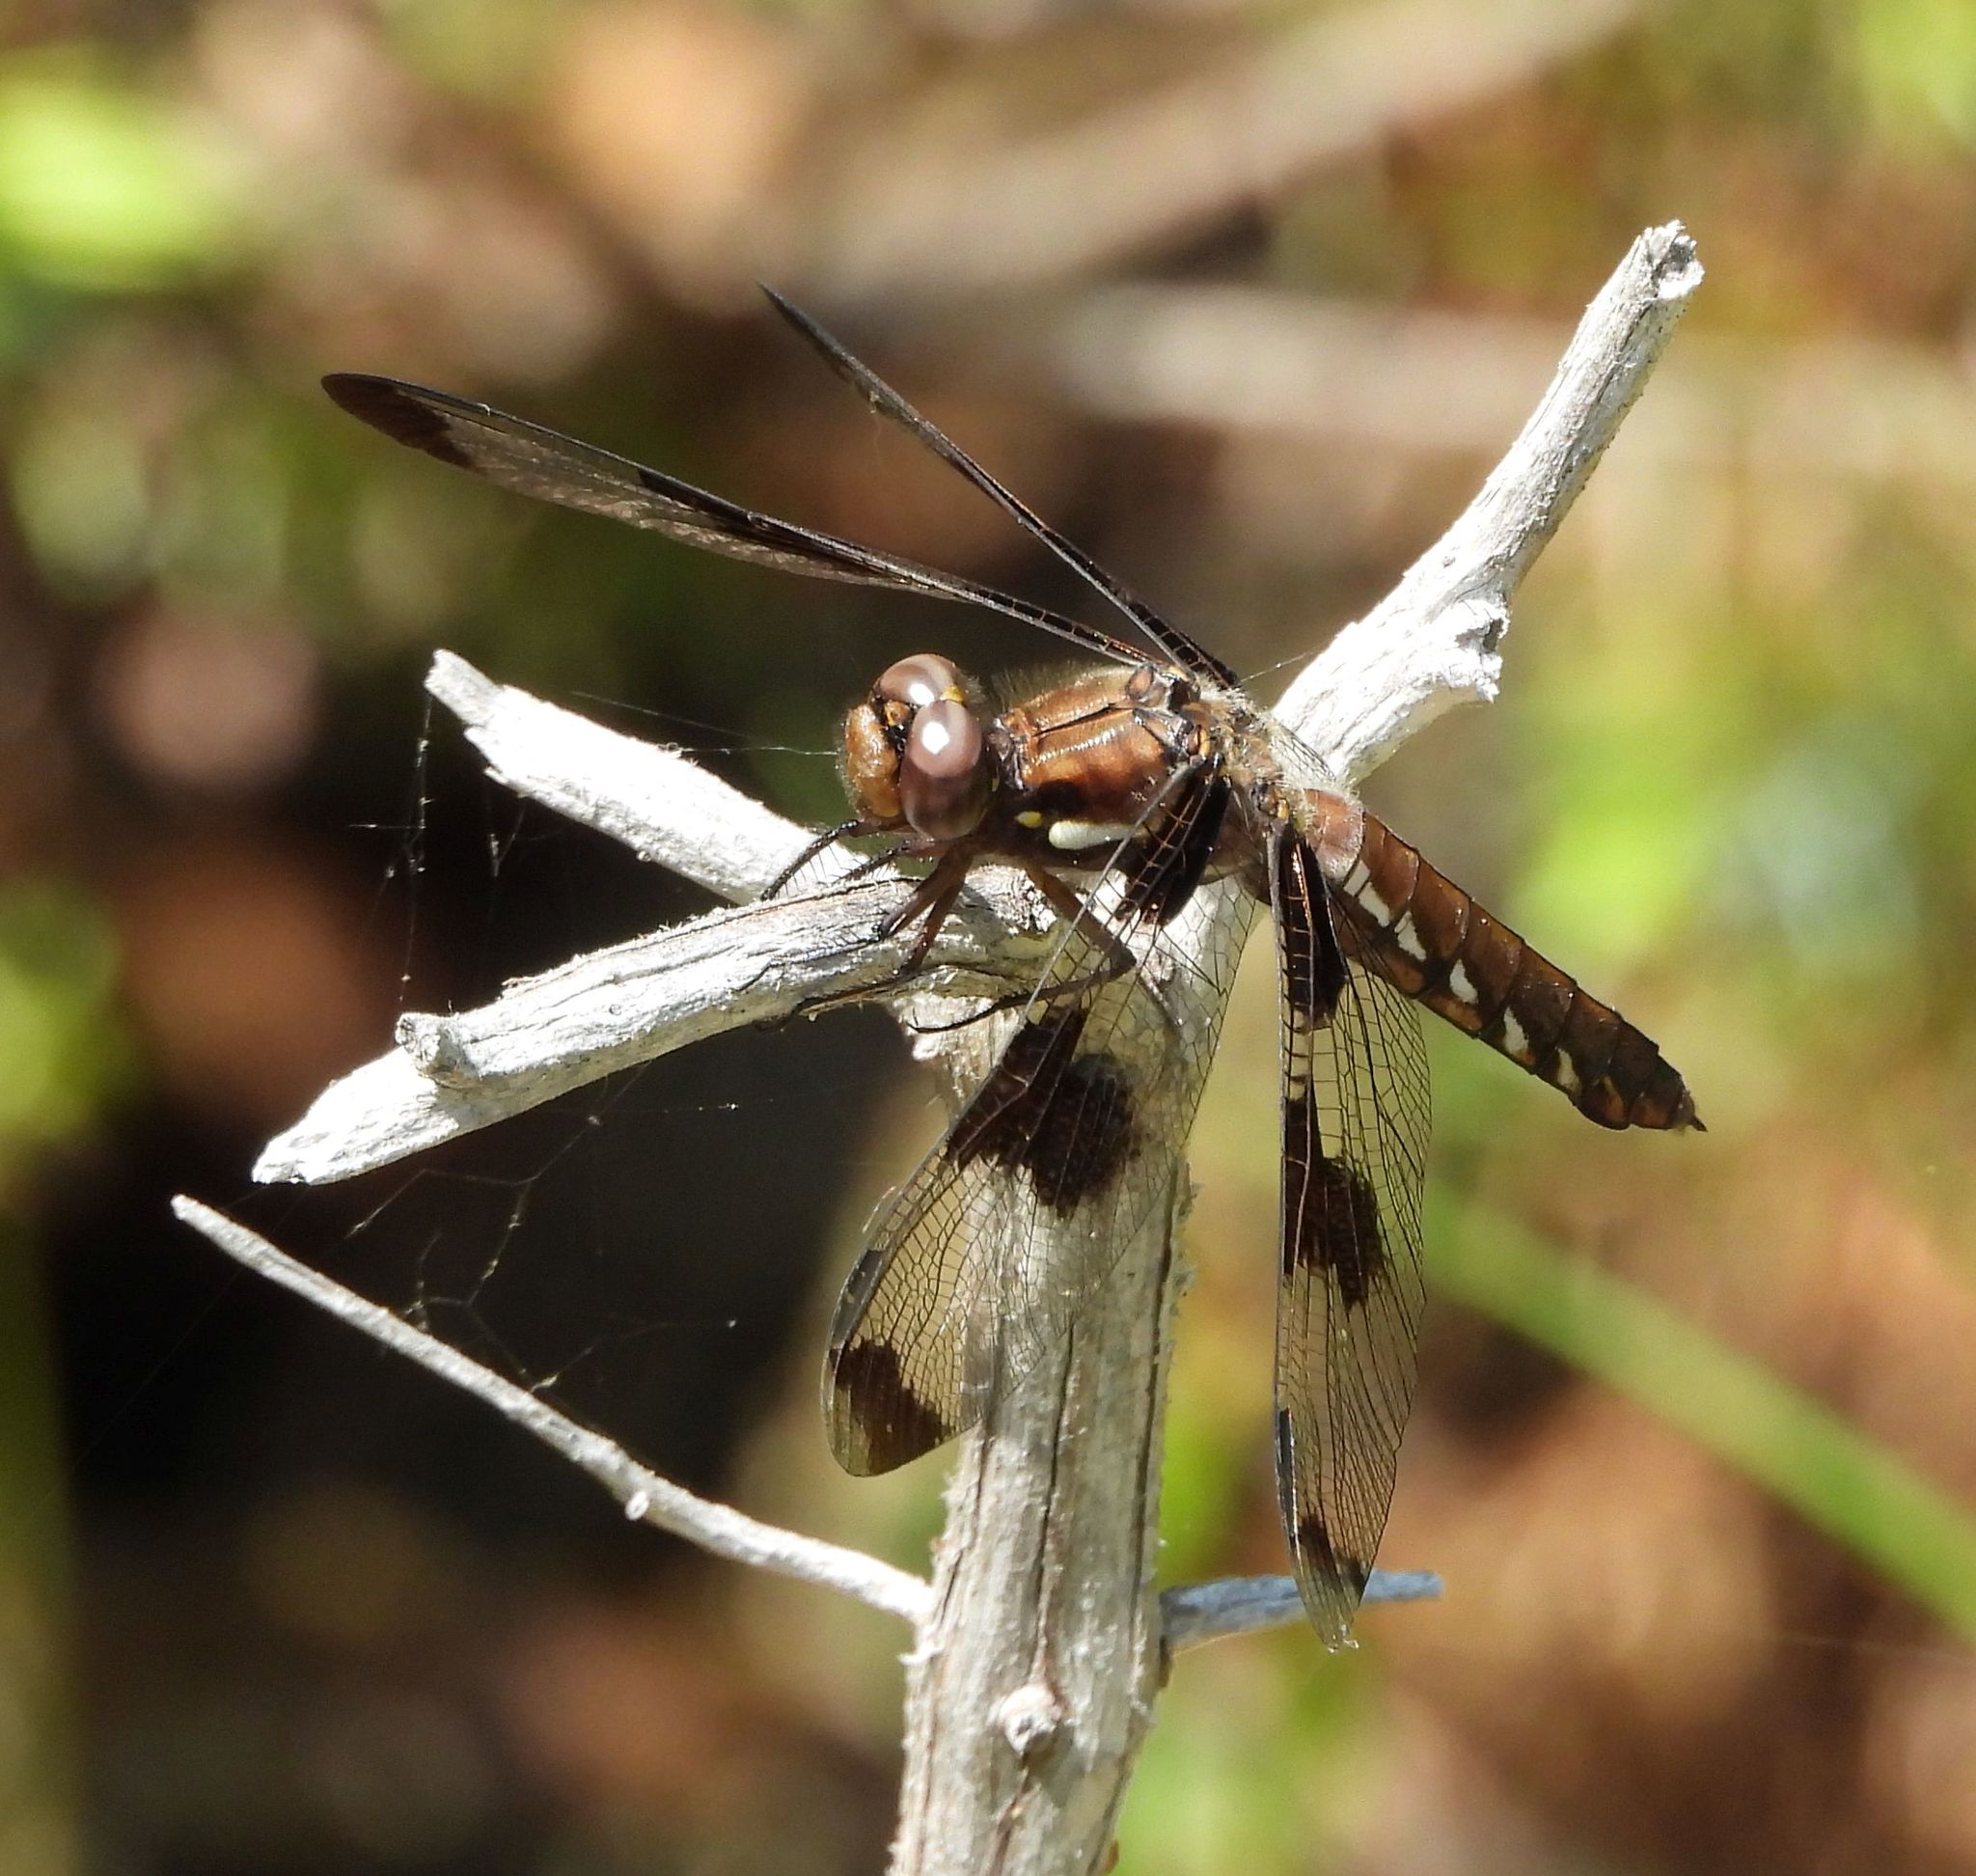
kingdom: Animalia
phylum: Arthropoda
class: Insecta
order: Odonata
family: Libellulidae
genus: Plathemis
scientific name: Plathemis lydia
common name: Common whitetail
